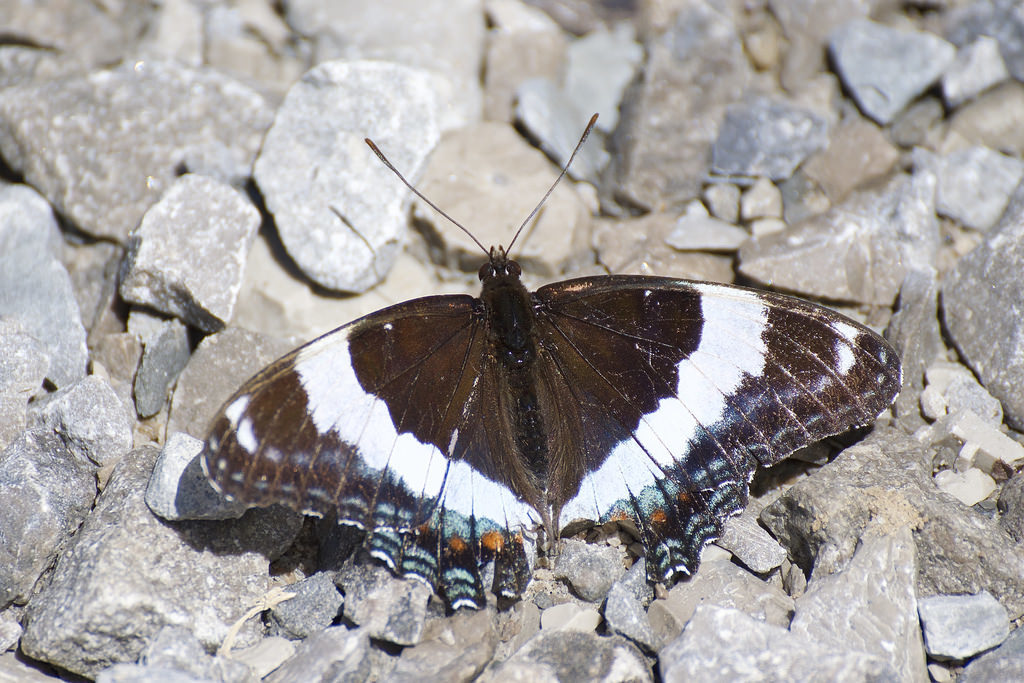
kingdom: Animalia
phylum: Arthropoda
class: Insecta
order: Lepidoptera
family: Nymphalidae
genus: Limenitis
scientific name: Limenitis arthemis
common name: Red-spotted admiral
